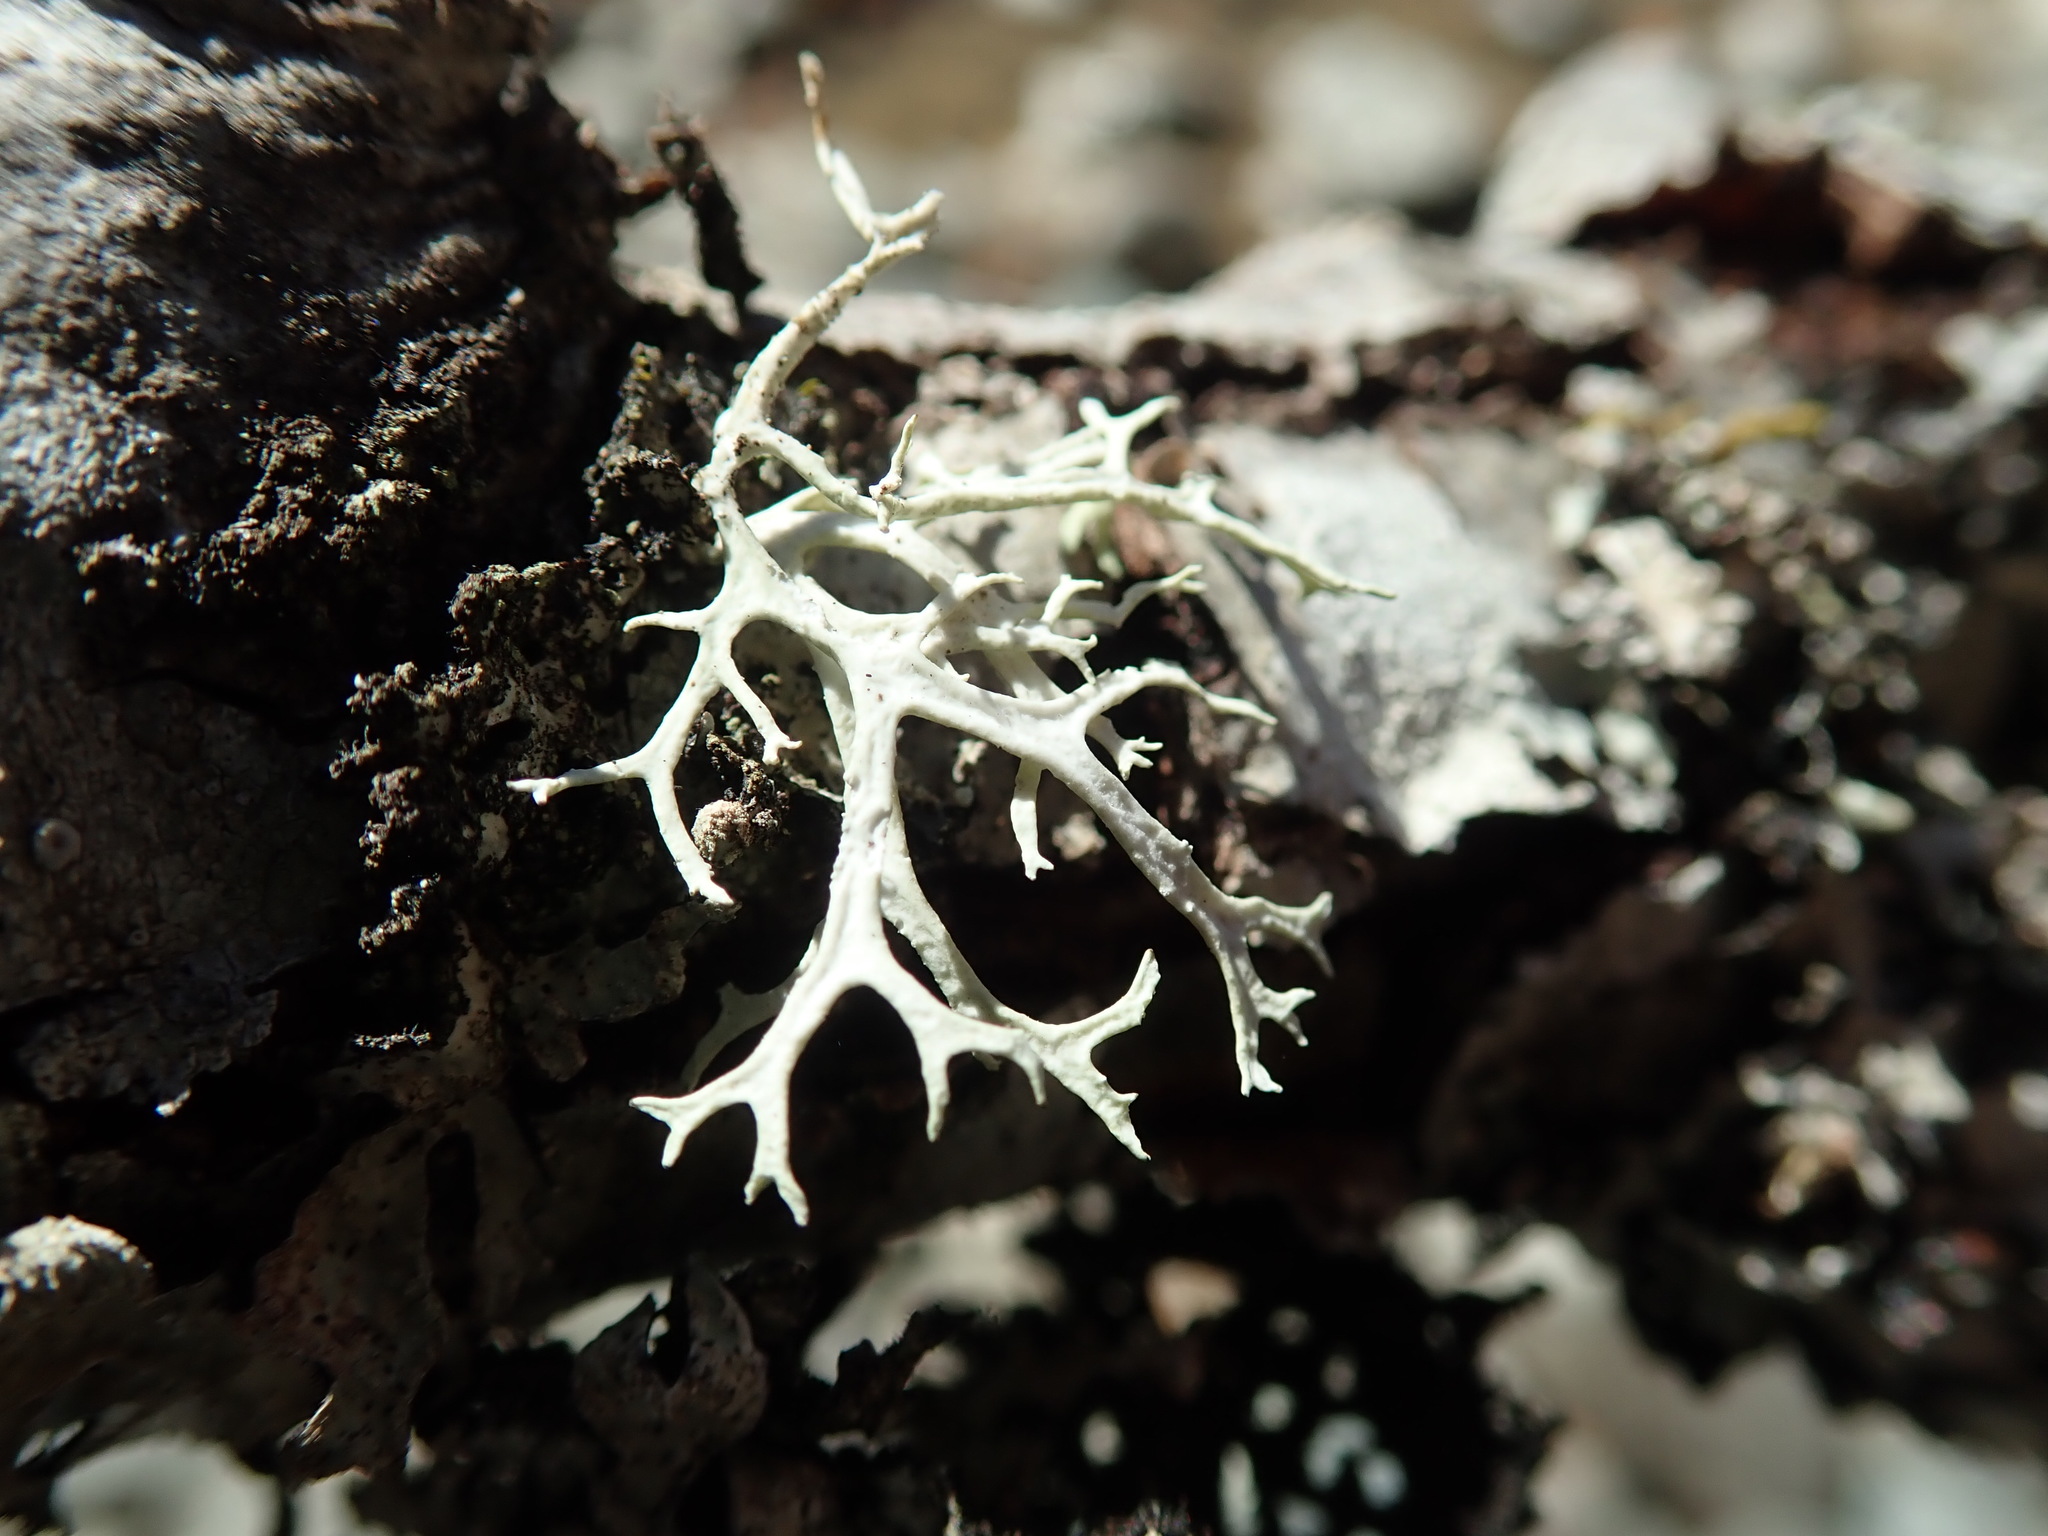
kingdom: Fungi
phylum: Ascomycota
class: Lecanoromycetes
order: Lecanorales
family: Parmeliaceae
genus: Evernia
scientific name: Evernia prunastri
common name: Oak moss
